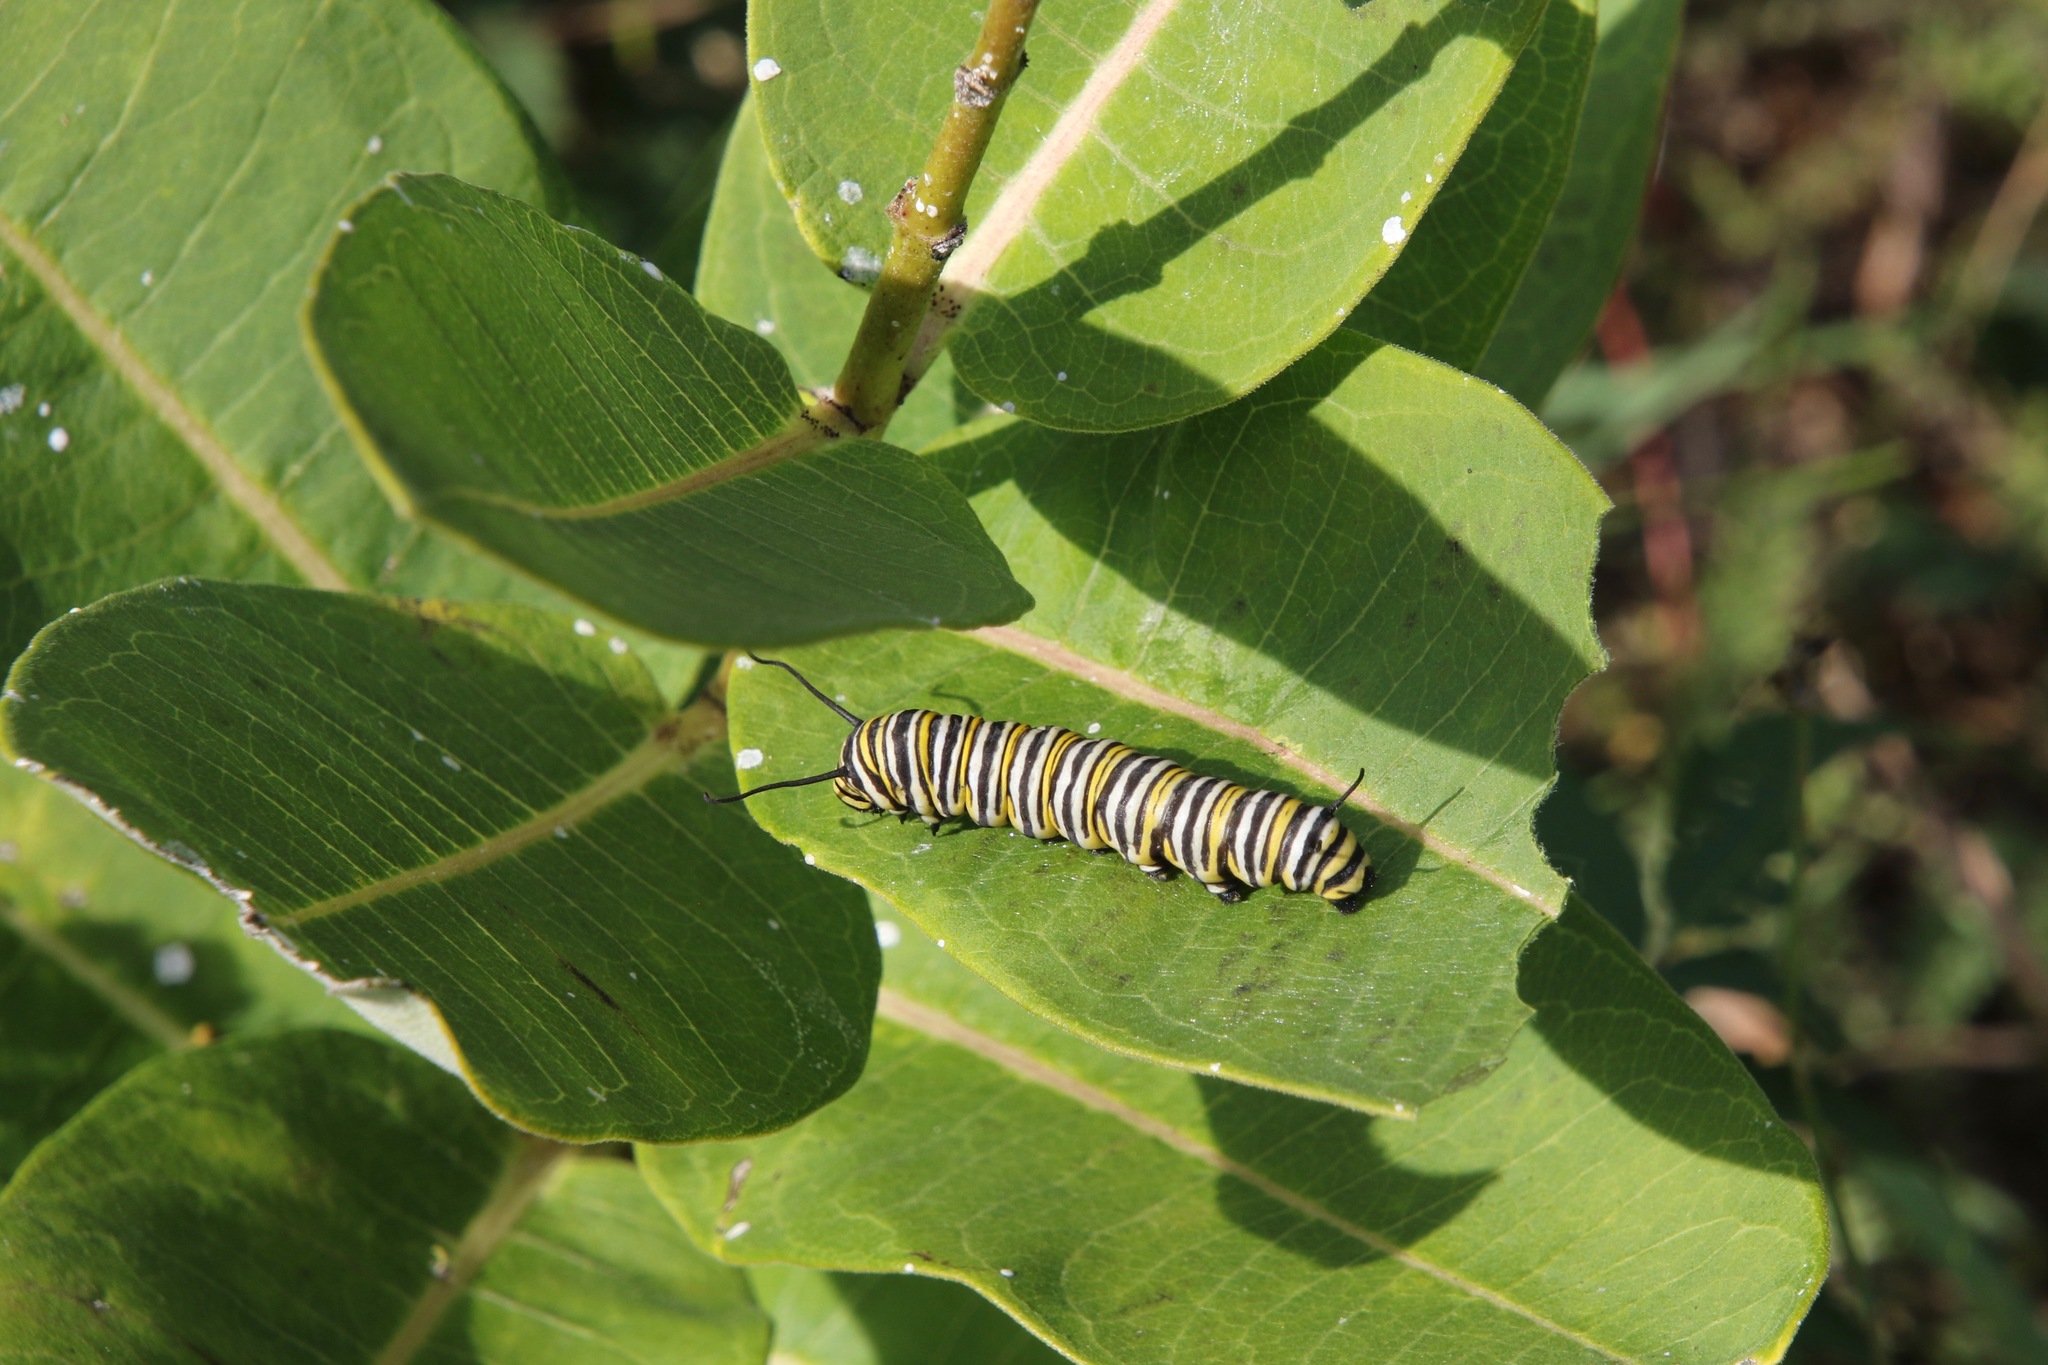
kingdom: Animalia
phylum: Arthropoda
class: Insecta
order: Lepidoptera
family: Nymphalidae
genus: Danaus
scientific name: Danaus plexippus
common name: Monarch
